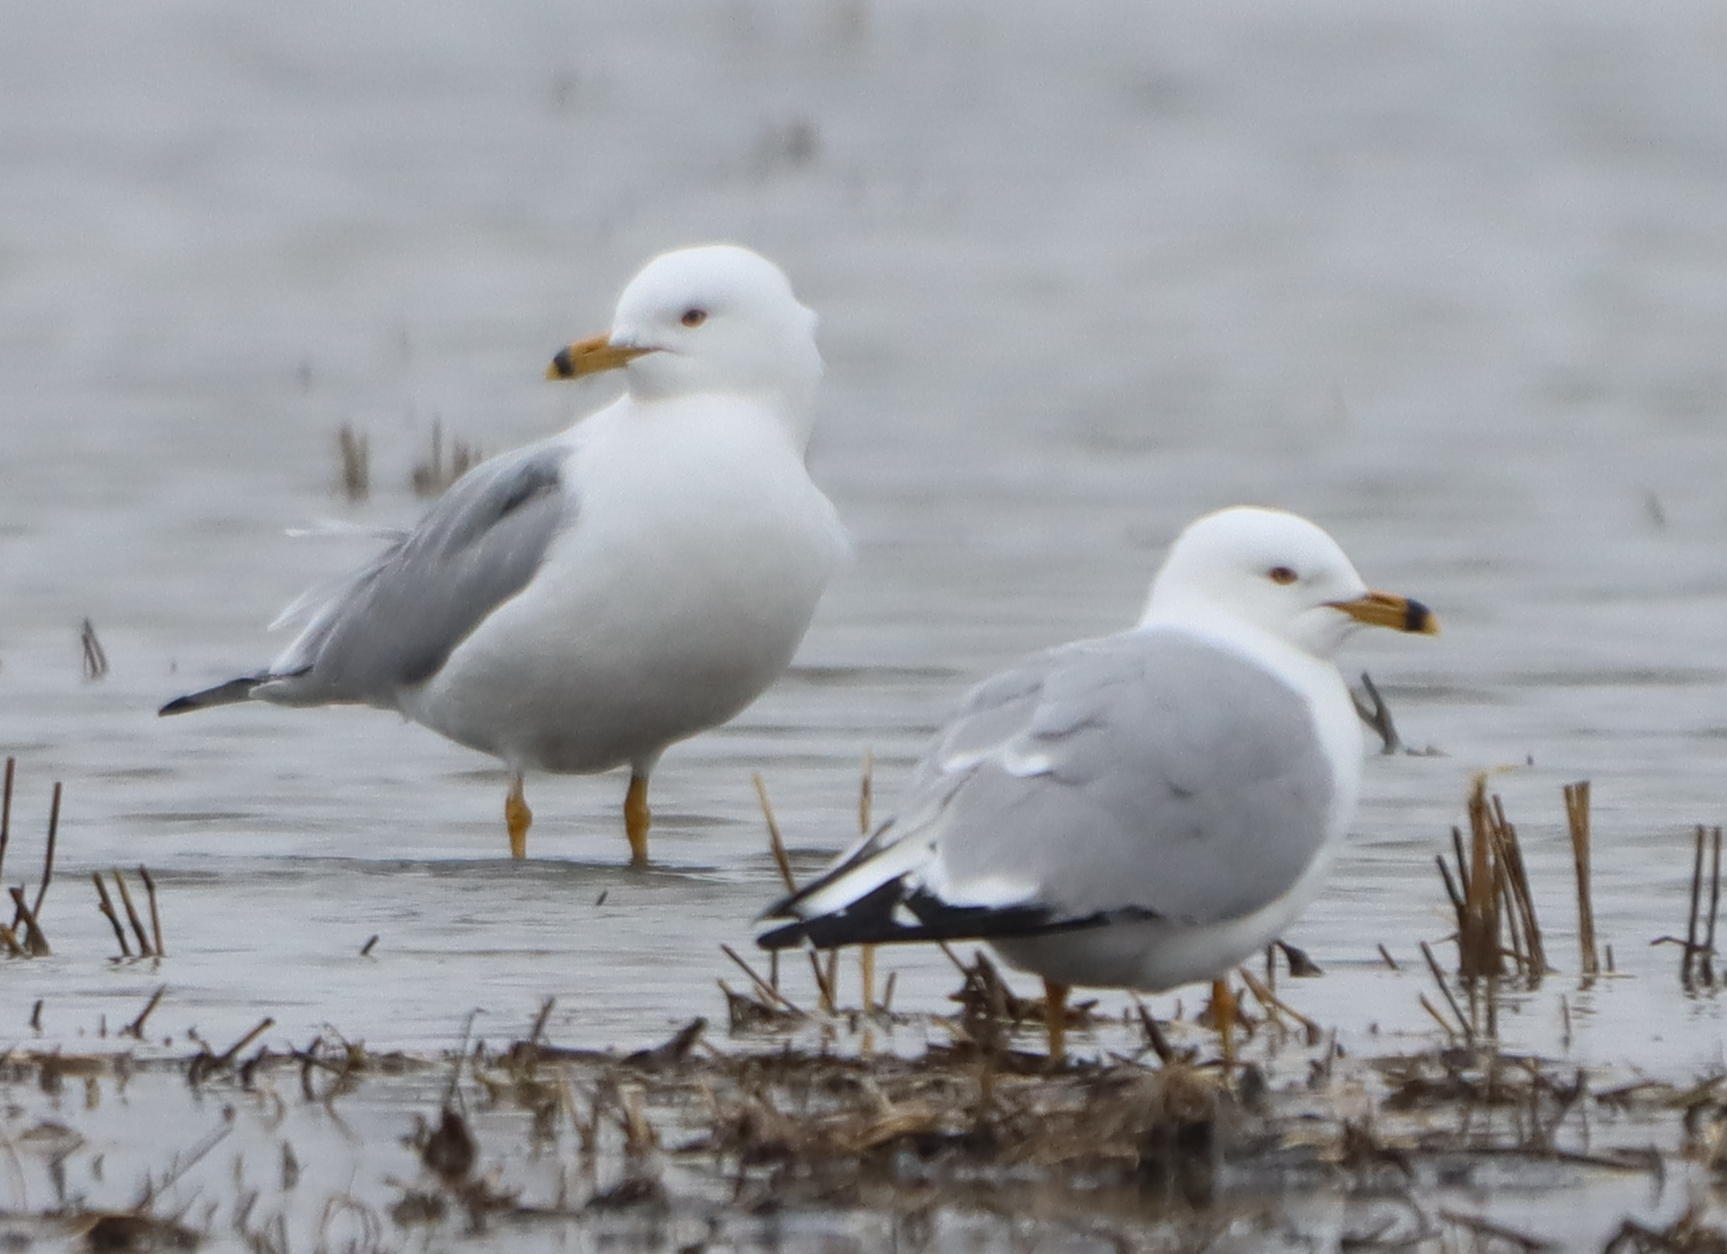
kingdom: Animalia
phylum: Chordata
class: Aves
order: Charadriiformes
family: Laridae
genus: Larus
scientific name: Larus delawarensis
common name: Ring-billed gull
